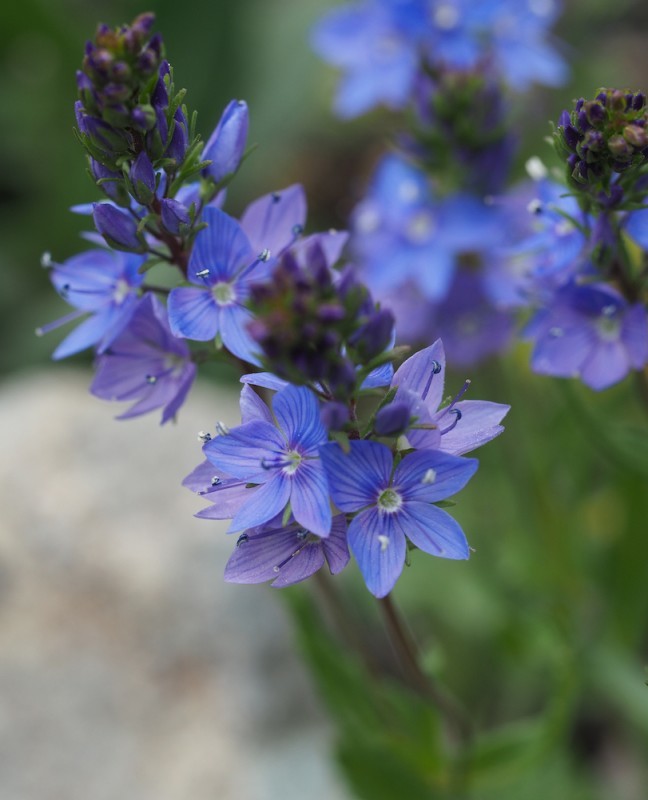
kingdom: Plantae
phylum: Tracheophyta
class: Magnoliopsida
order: Lamiales
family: Plantaginaceae
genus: Veronica
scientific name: Veronica austriaca
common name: Large speedwell
